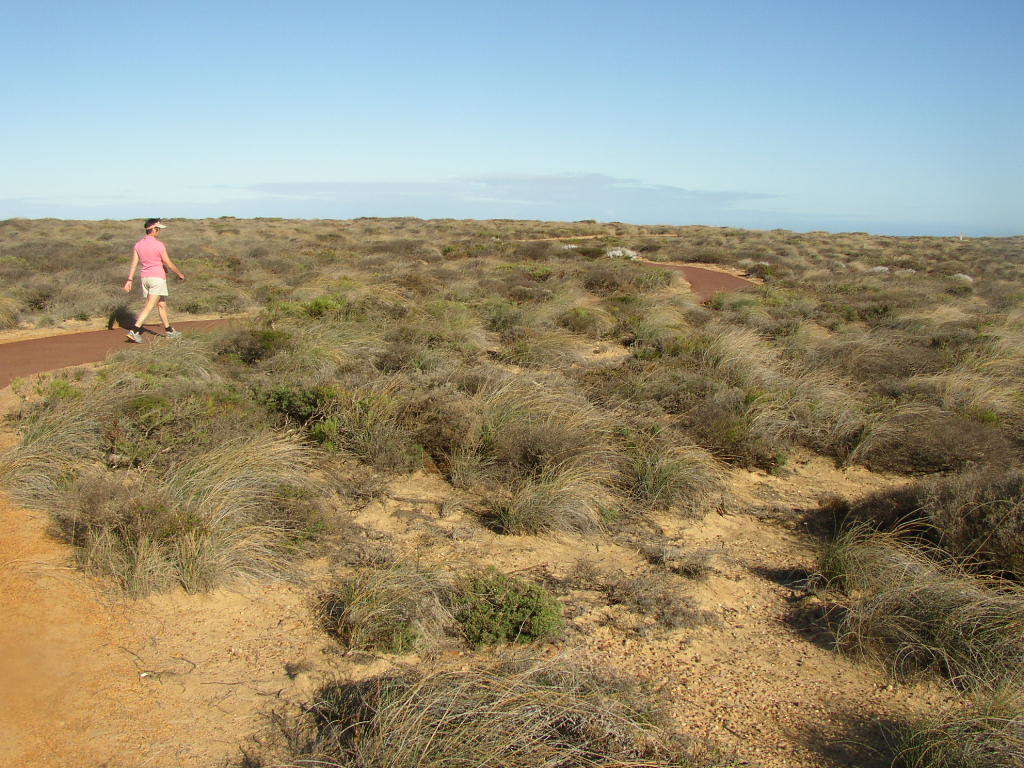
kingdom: Plantae
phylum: Tracheophyta
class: Liliopsida
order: Poales
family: Ecdeiocoleaceae
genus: Ecdeiocolea
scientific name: Ecdeiocolea monostachya
